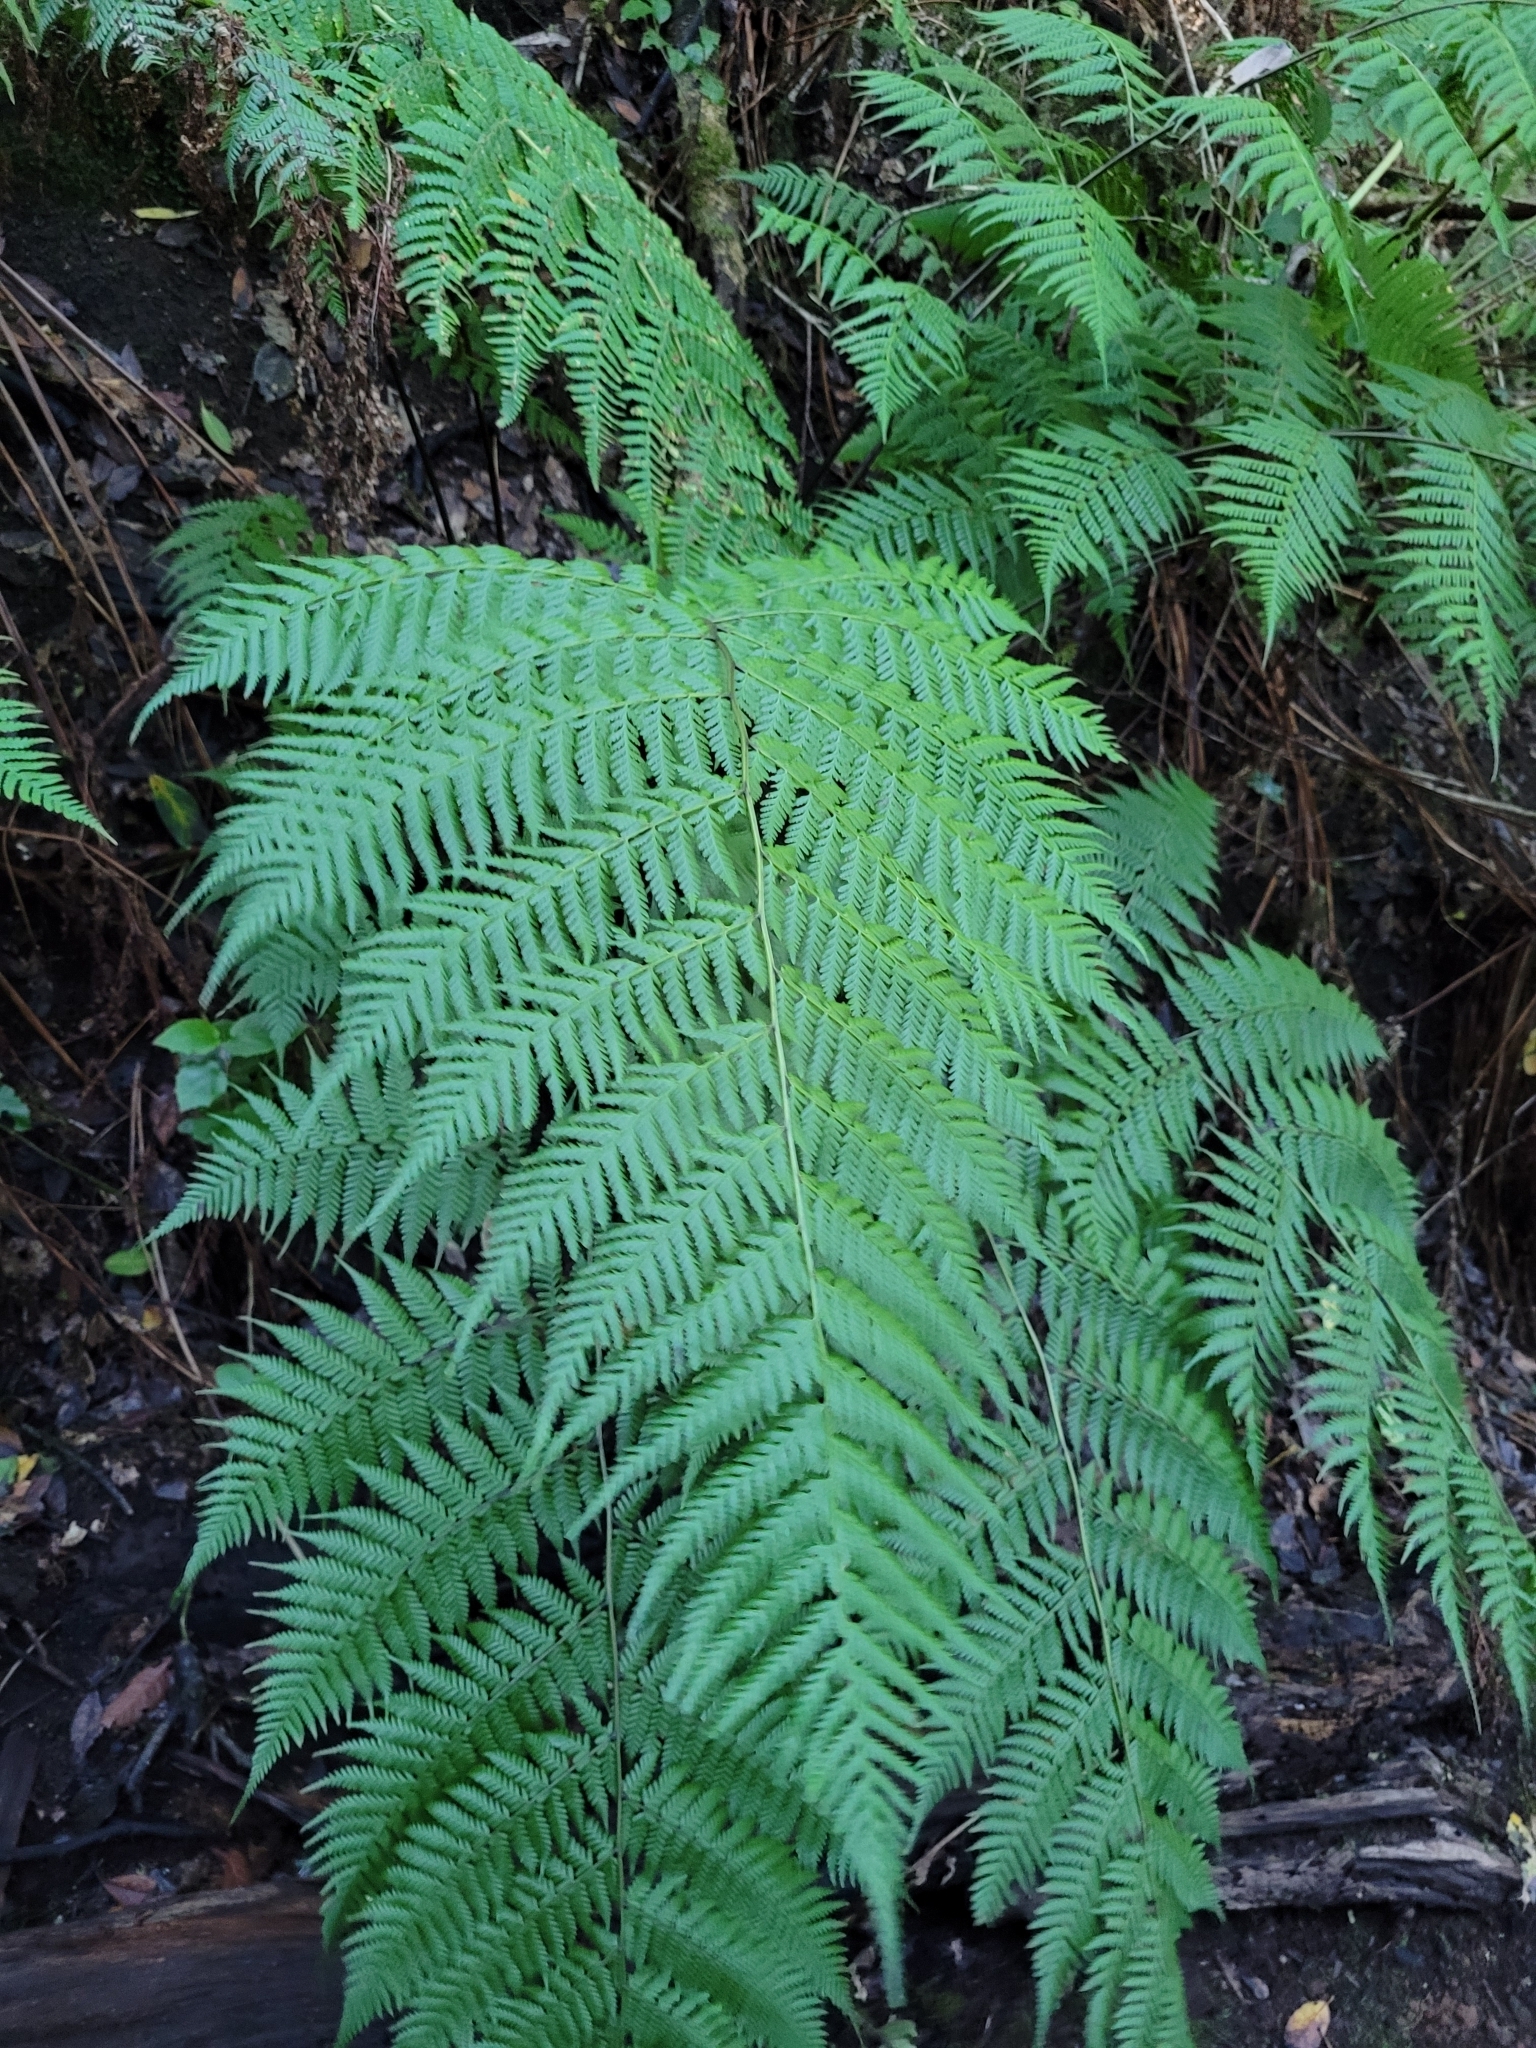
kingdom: Plantae
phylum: Tracheophyta
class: Polypodiopsida
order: Polypodiales
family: Athyriaceae
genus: Diplazium
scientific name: Diplazium caudatum
